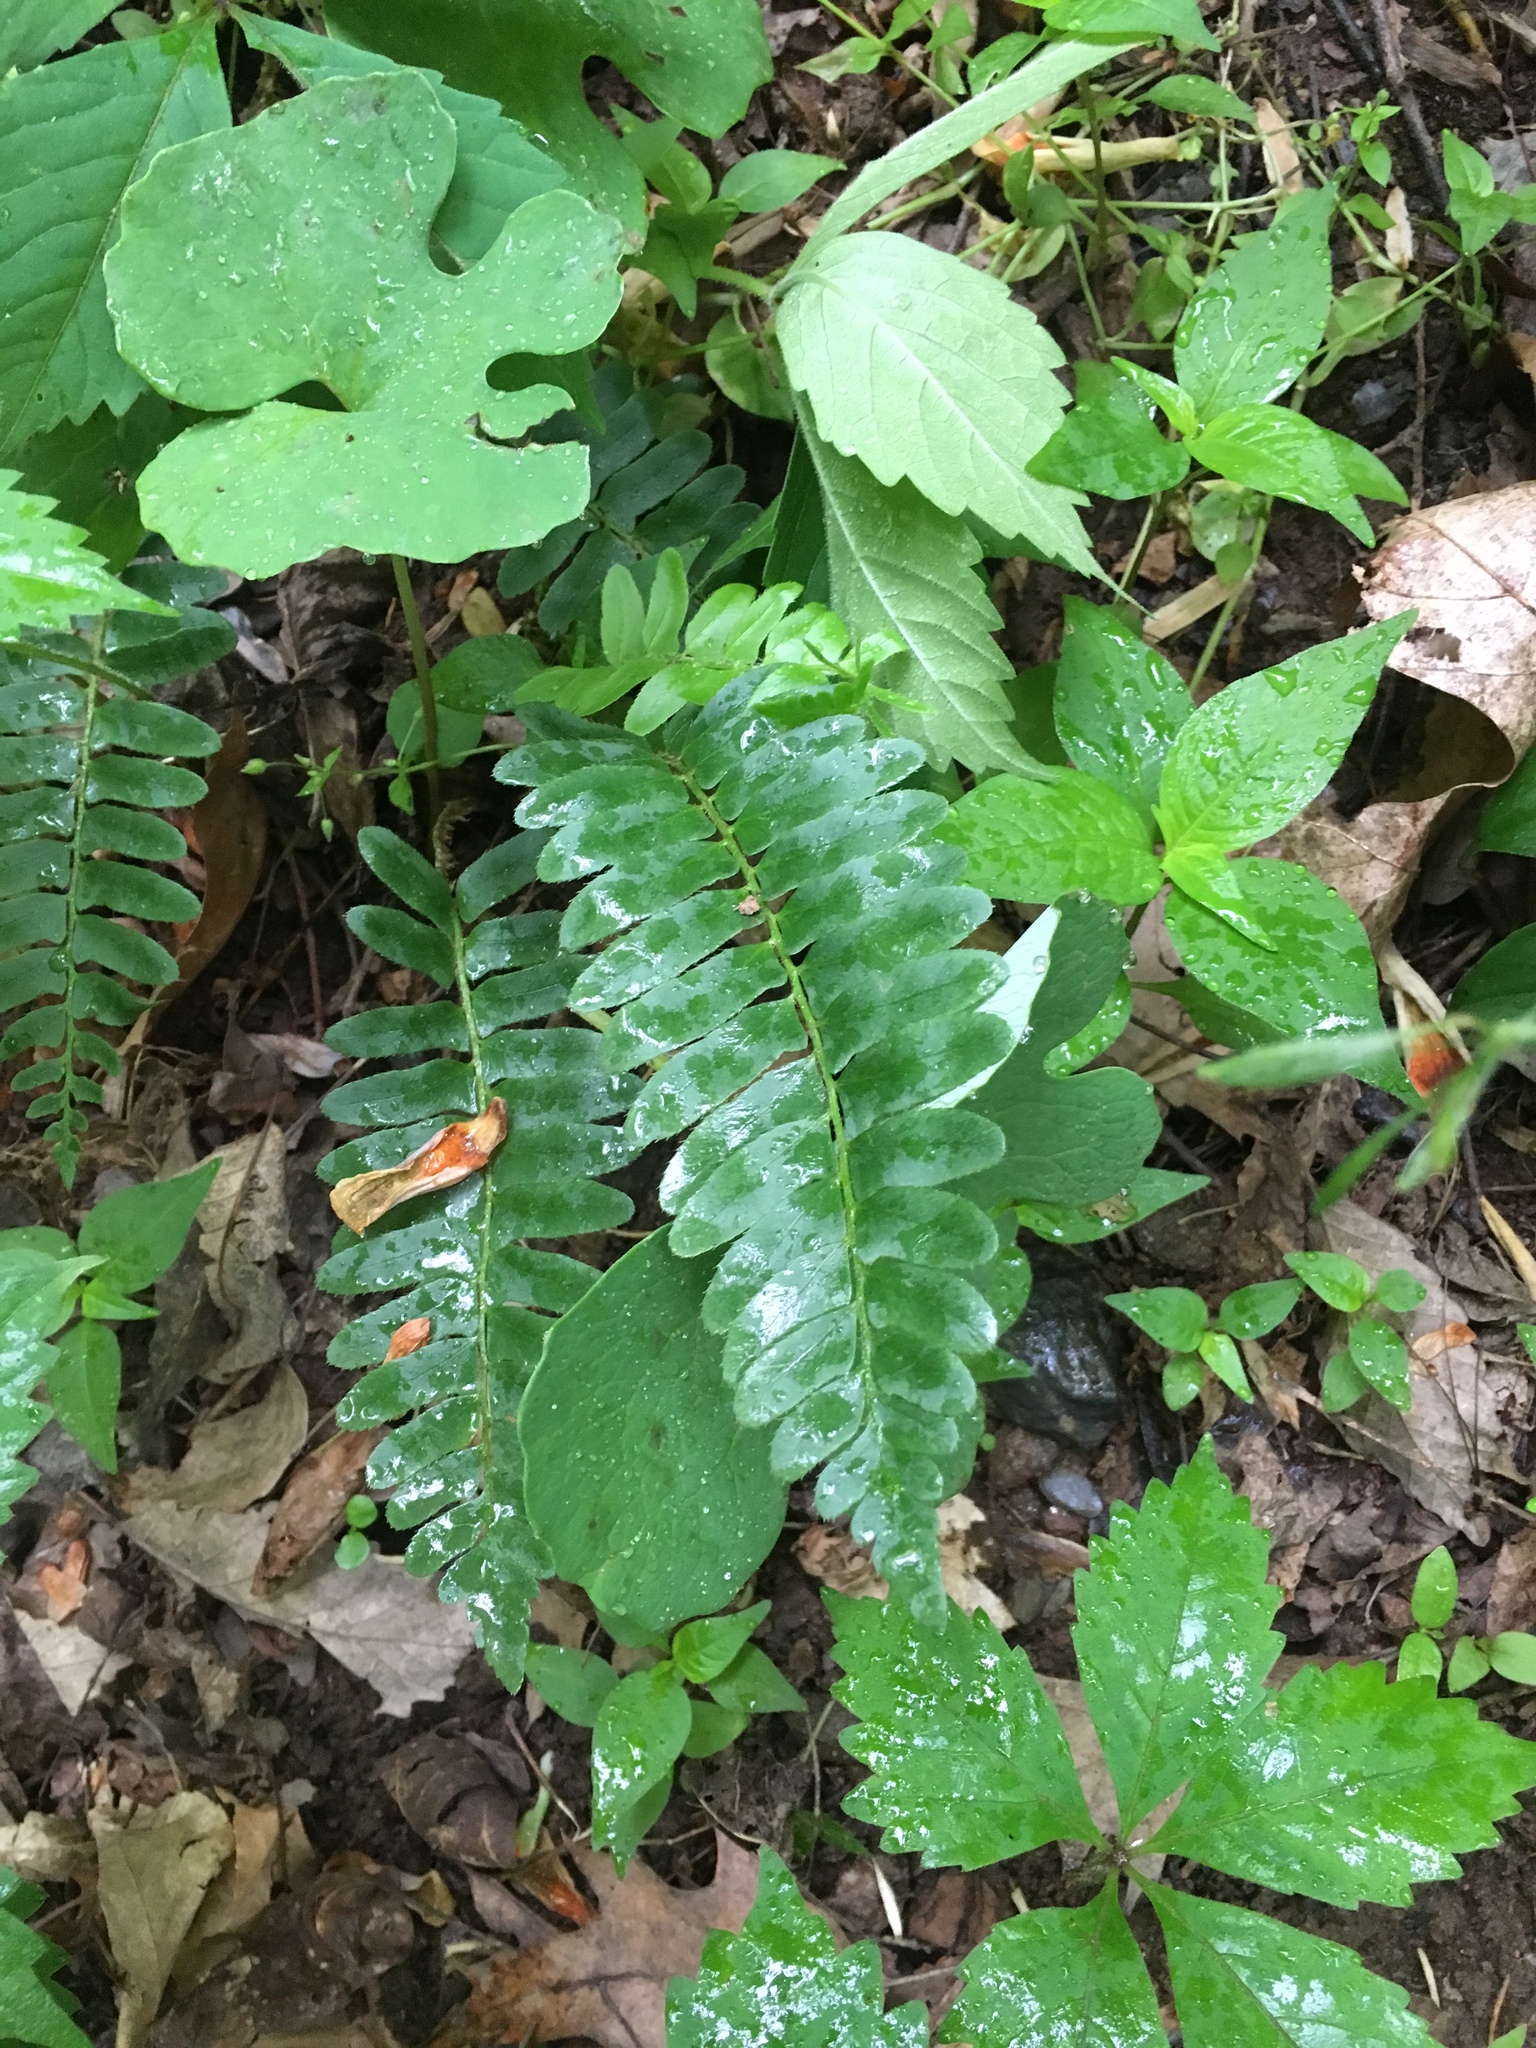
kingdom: Plantae
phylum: Tracheophyta
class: Polypodiopsida
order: Polypodiales
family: Dryopteridaceae
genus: Polystichum
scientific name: Polystichum acrostichoides
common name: Christmas fern
